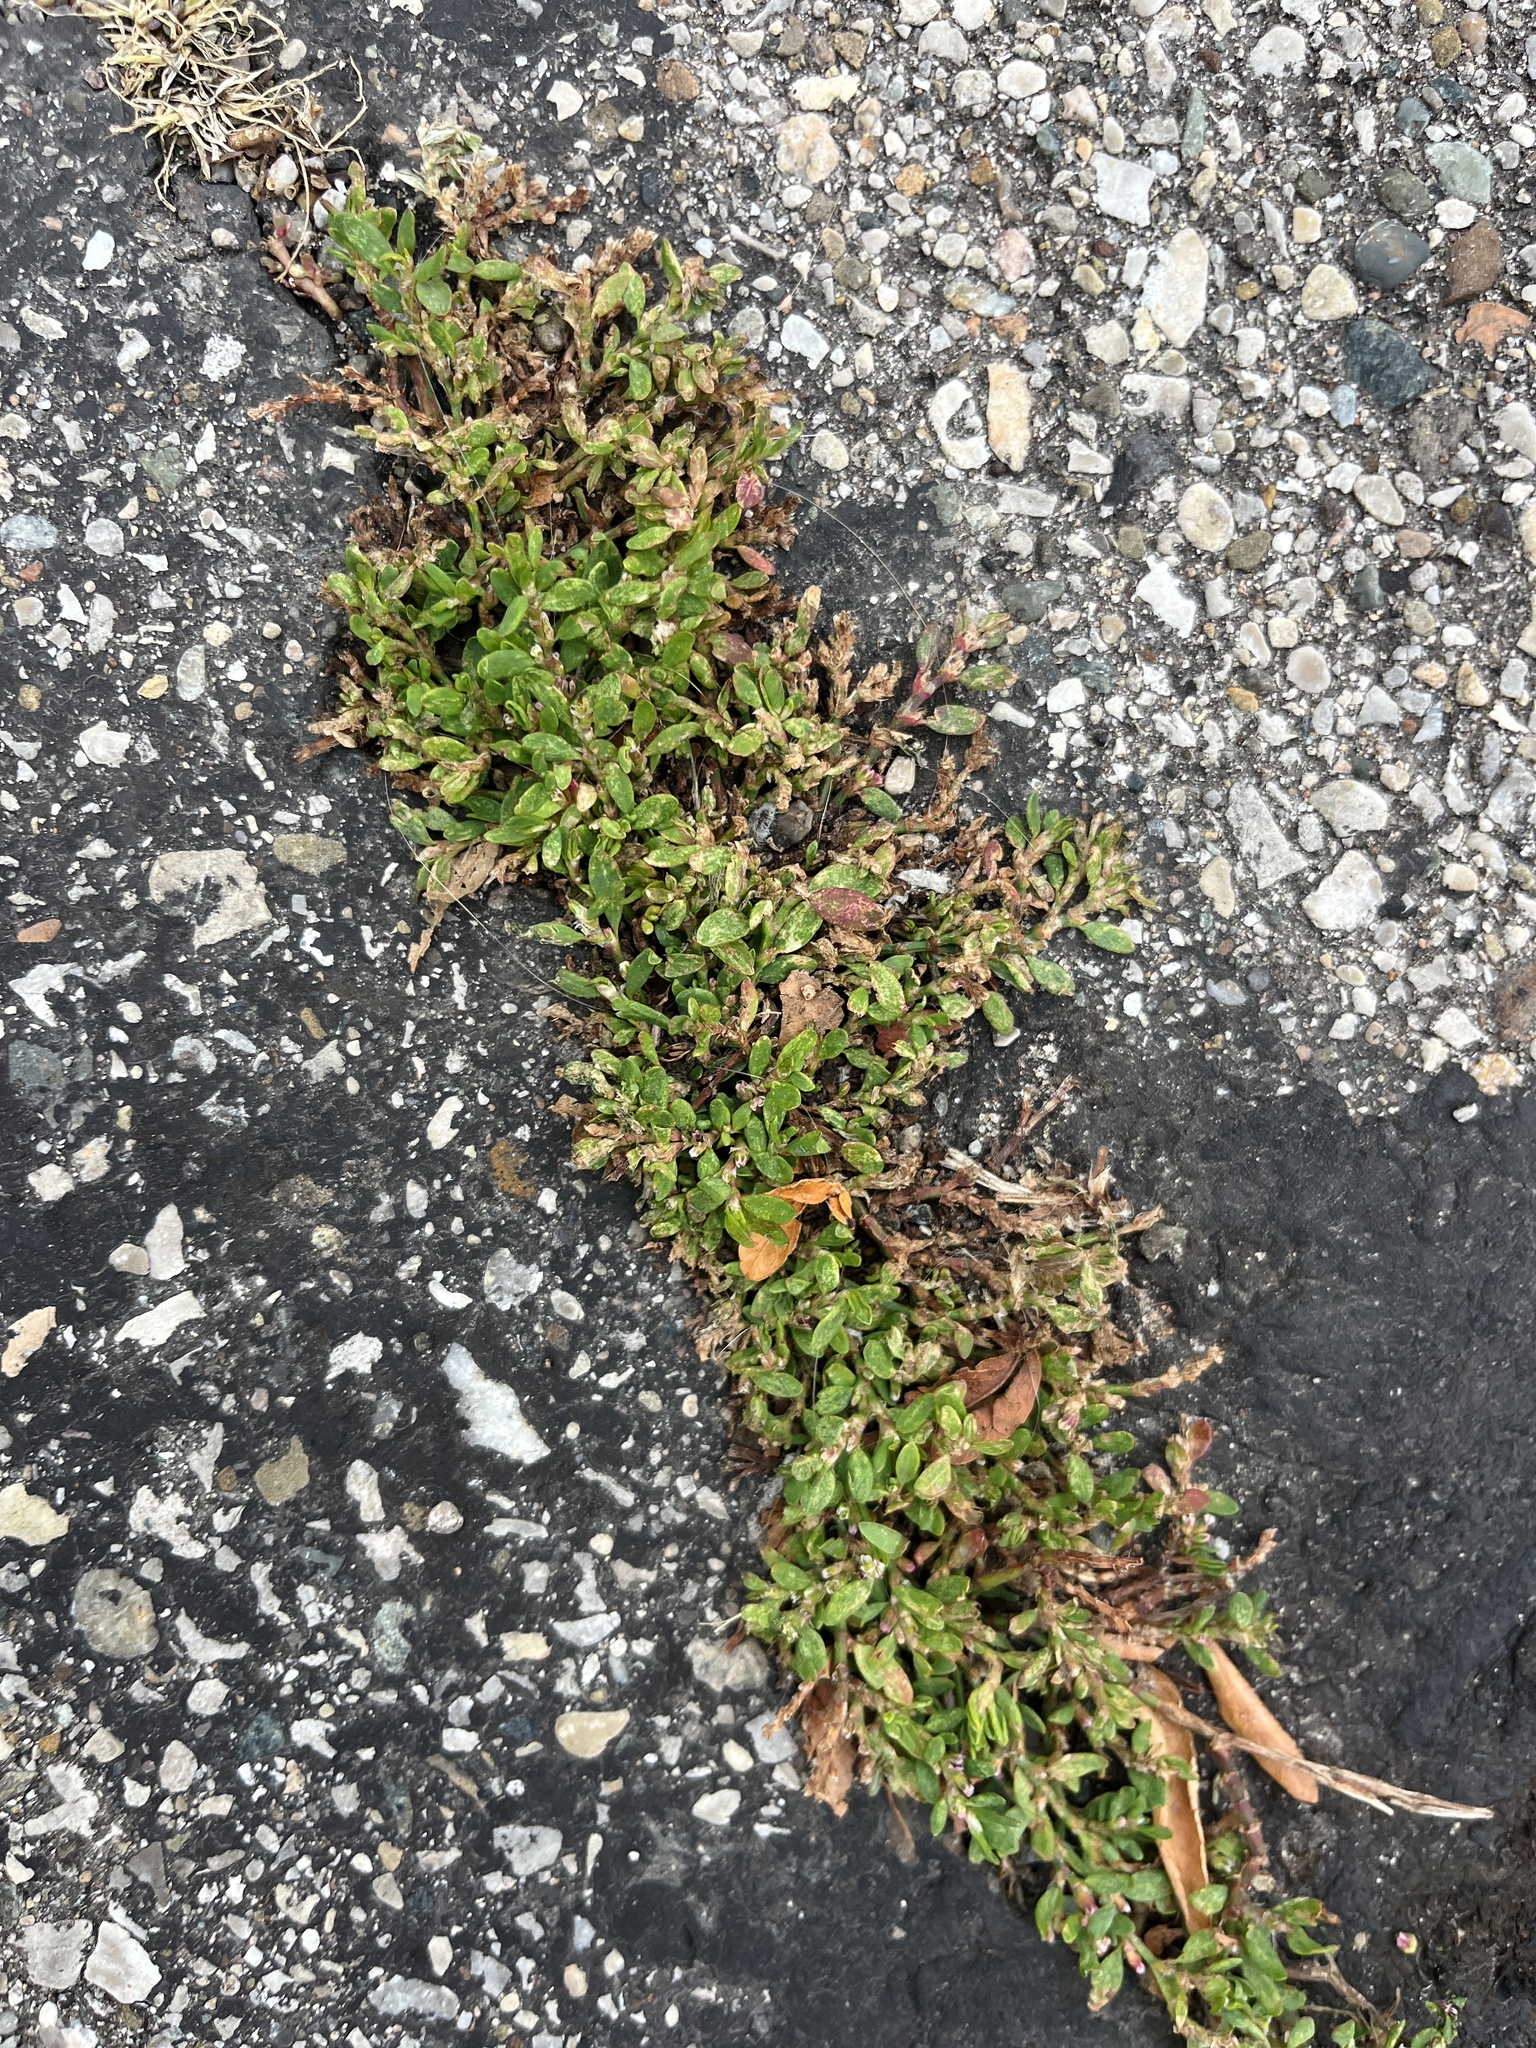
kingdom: Plantae
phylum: Tracheophyta
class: Magnoliopsida
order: Caryophyllales
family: Polygonaceae
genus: Polygonum
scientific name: Polygonum aviculare
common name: Prostrate knotweed
